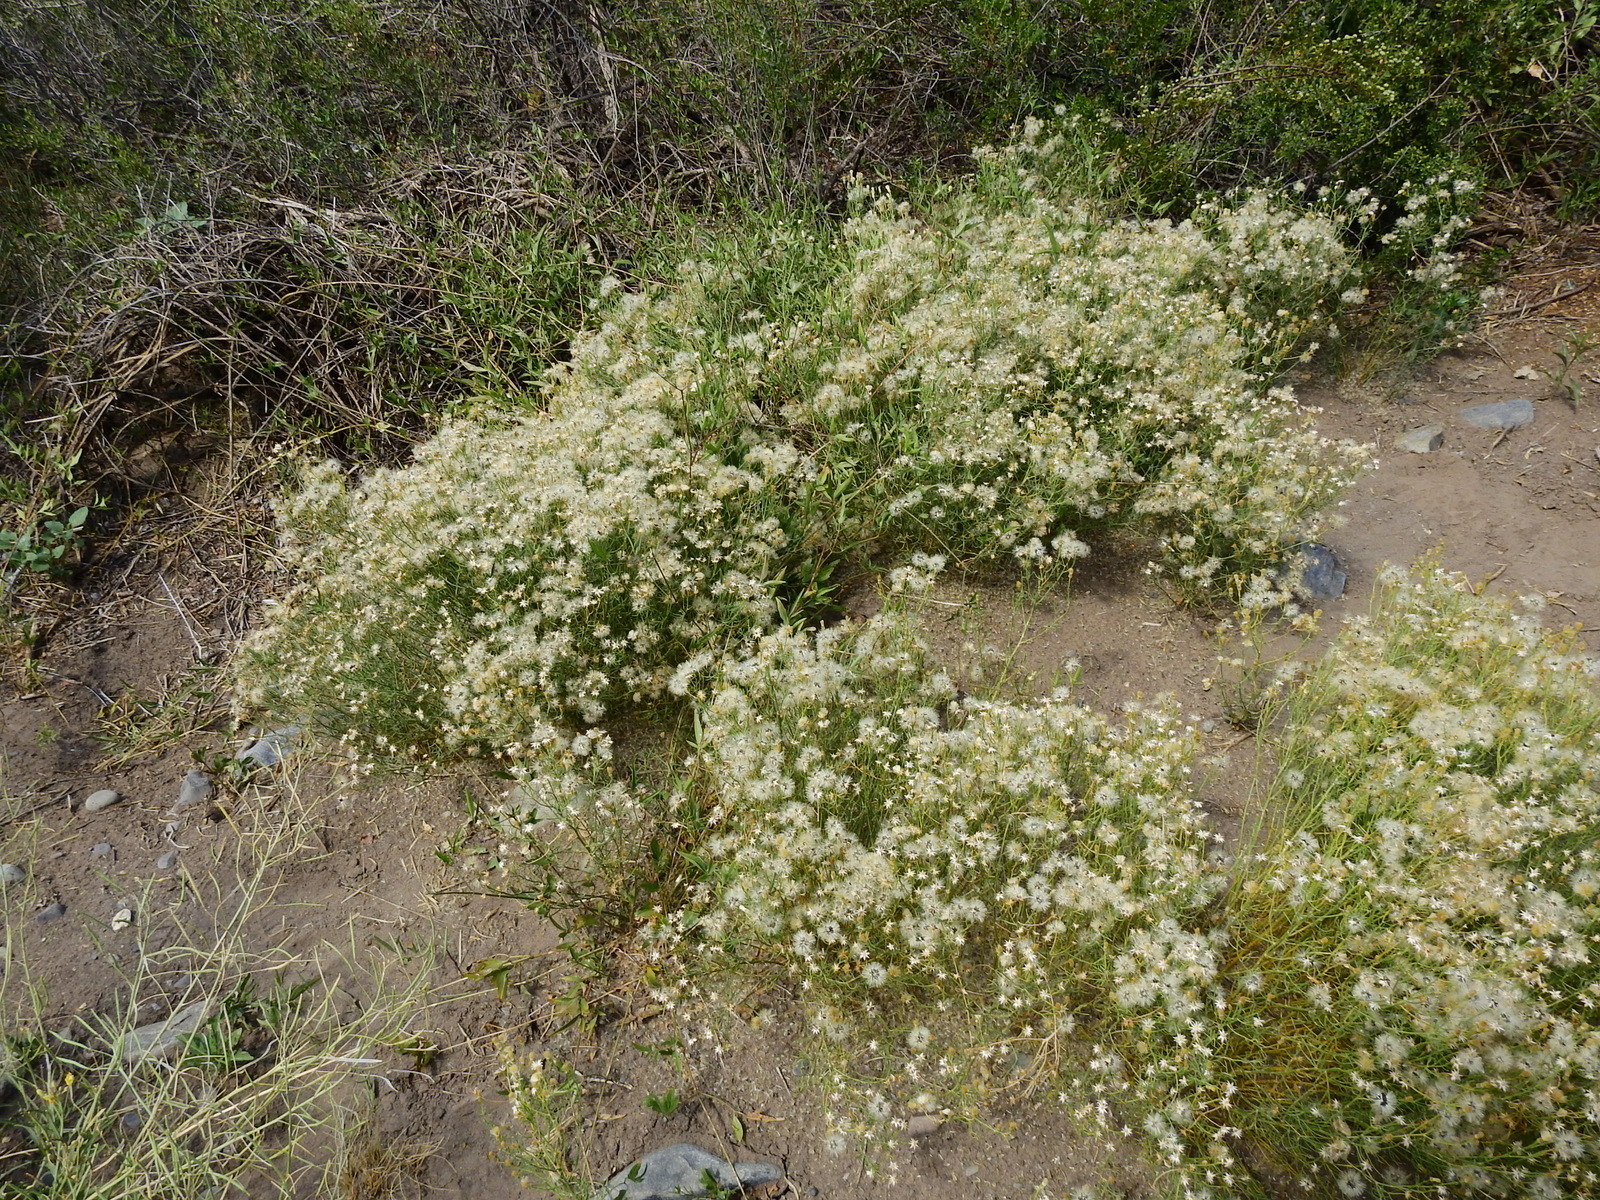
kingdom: Plantae
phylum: Tracheophyta
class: Magnoliopsida
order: Asterales
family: Asteraceae
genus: Baccharis
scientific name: Baccharis darwinii
